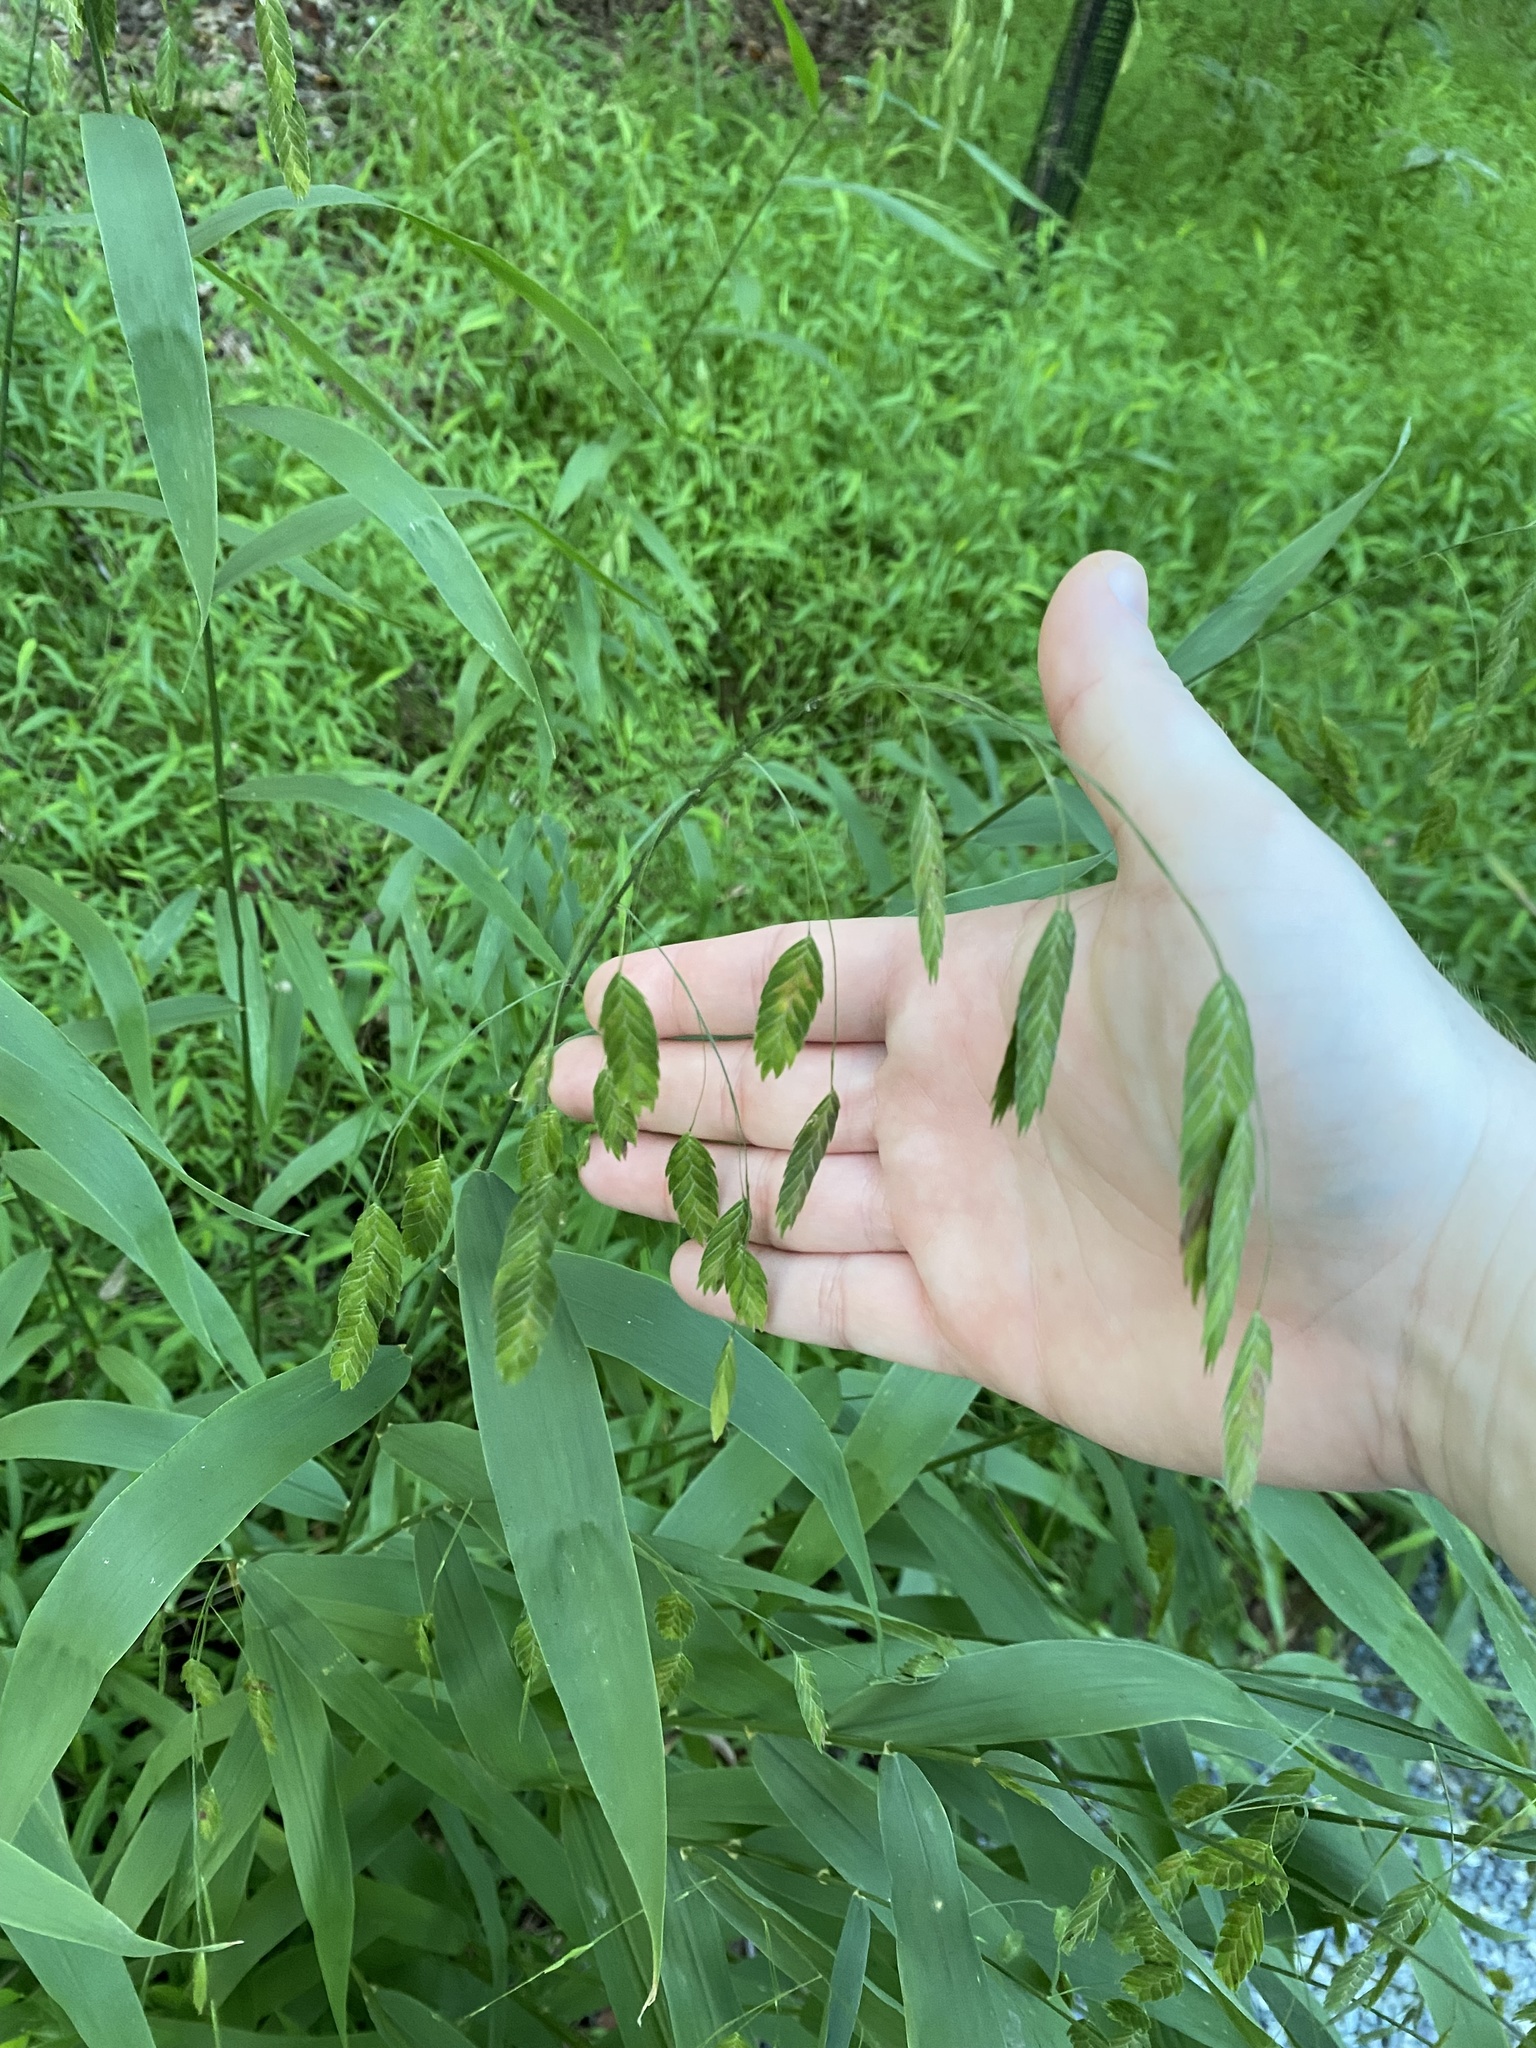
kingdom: Plantae
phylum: Tracheophyta
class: Liliopsida
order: Poales
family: Poaceae
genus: Chasmanthium
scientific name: Chasmanthium latifolium
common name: Broad-leaved chasmanthium
